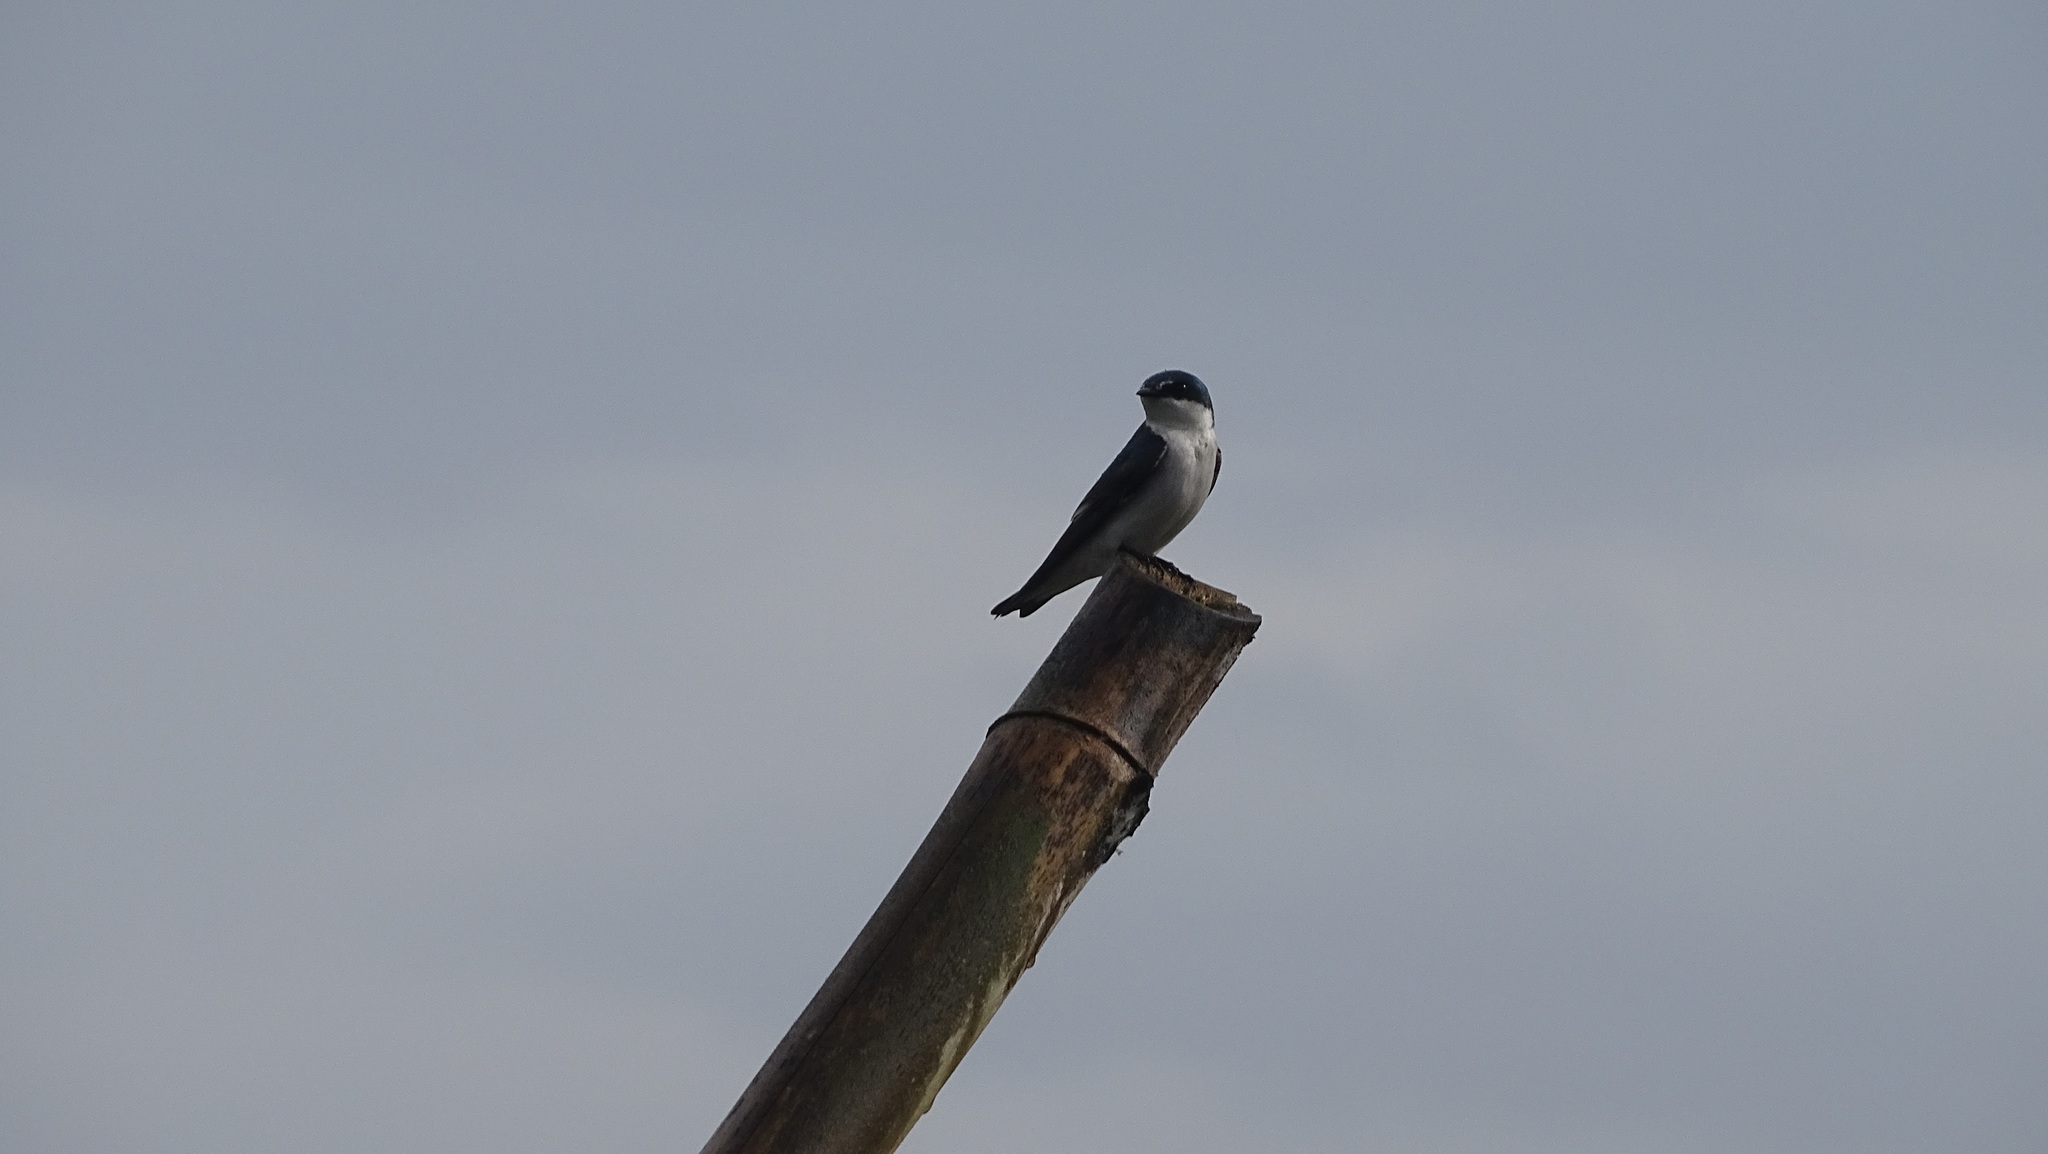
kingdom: Animalia
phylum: Chordata
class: Aves
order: Passeriformes
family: Hirundinidae
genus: Tachycineta
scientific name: Tachycineta albilinea
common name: Mangrove swallow
